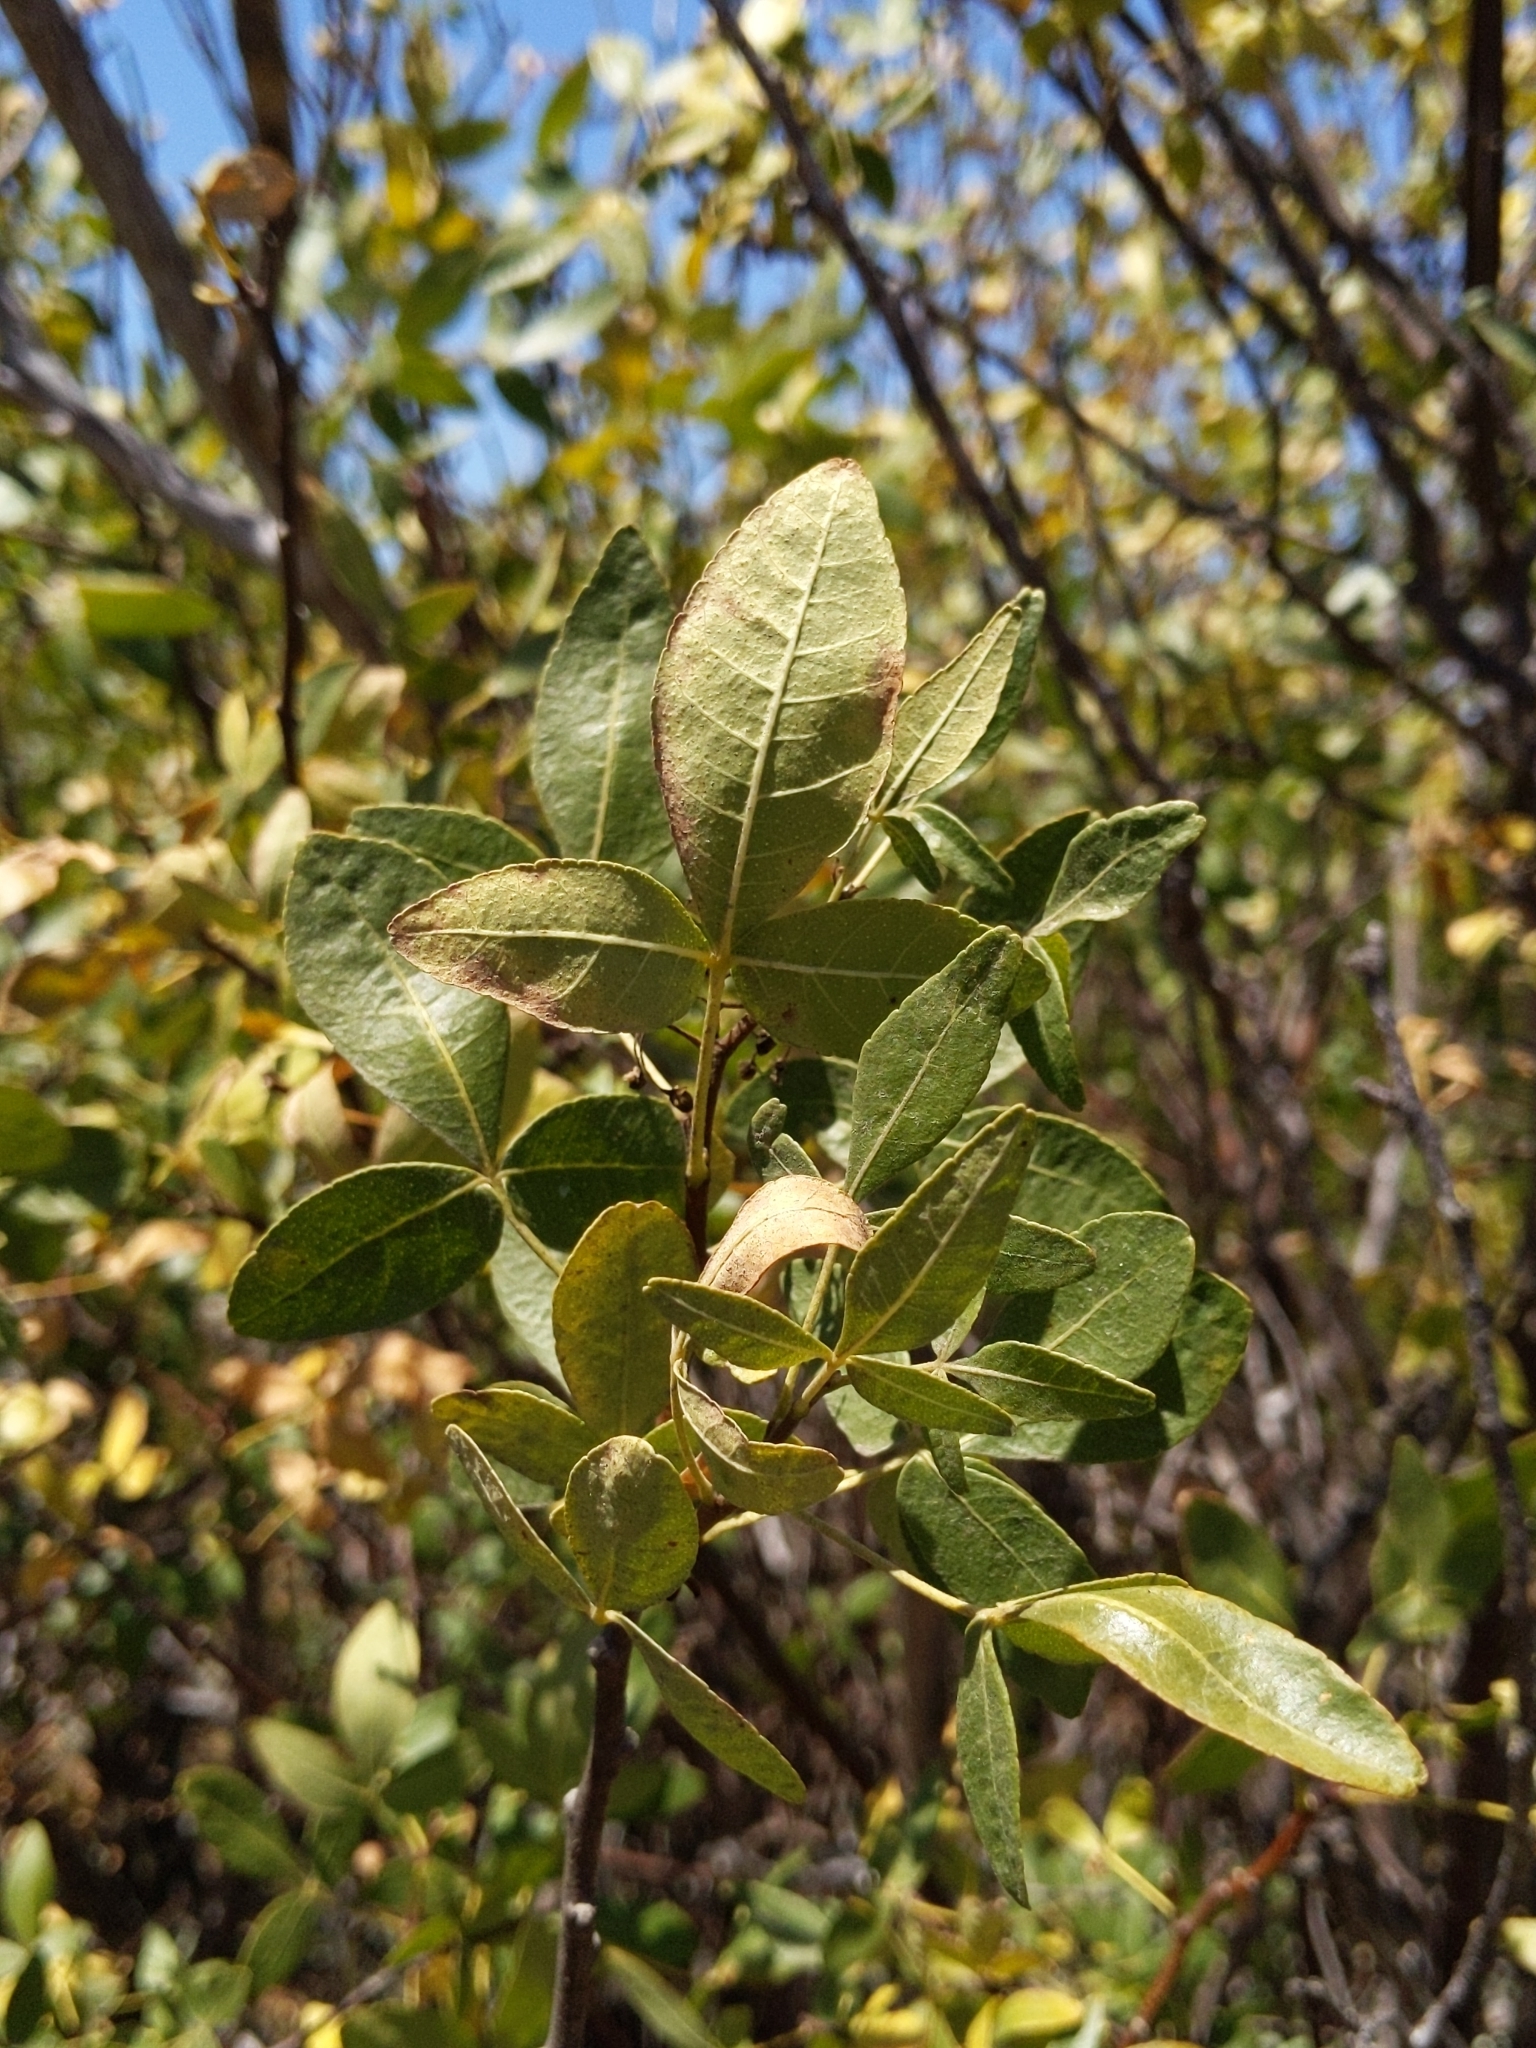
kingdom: Plantae
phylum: Tracheophyta
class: Magnoliopsida
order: Sapindales
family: Rutaceae
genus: Ptelea
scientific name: Ptelea crenulata
